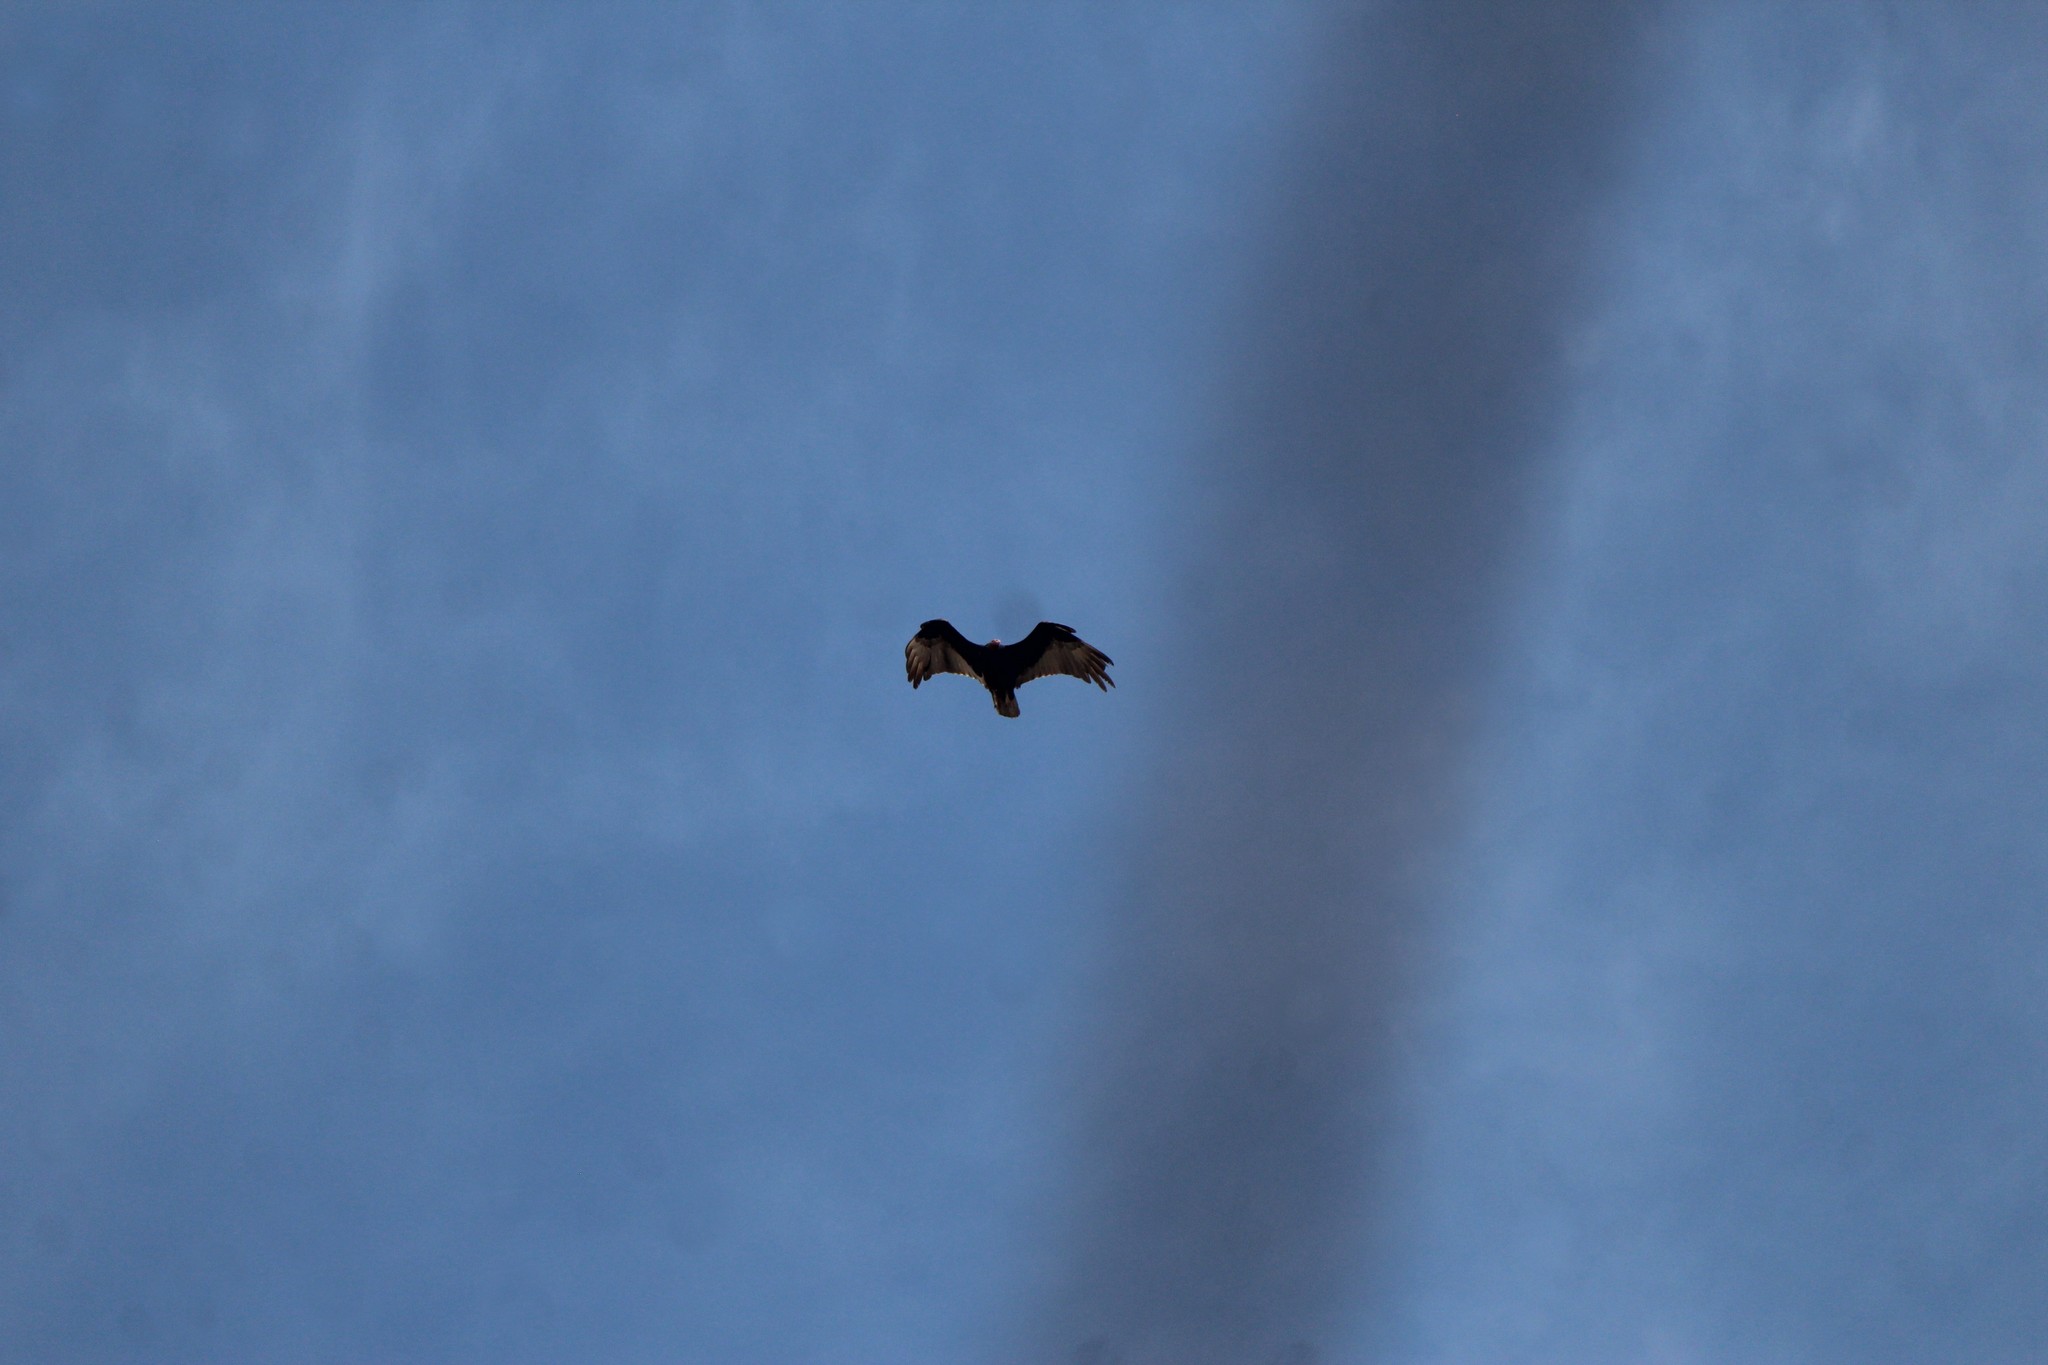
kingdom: Animalia
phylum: Chordata
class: Aves
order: Accipitriformes
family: Cathartidae
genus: Cathartes
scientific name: Cathartes aura
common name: Turkey vulture
